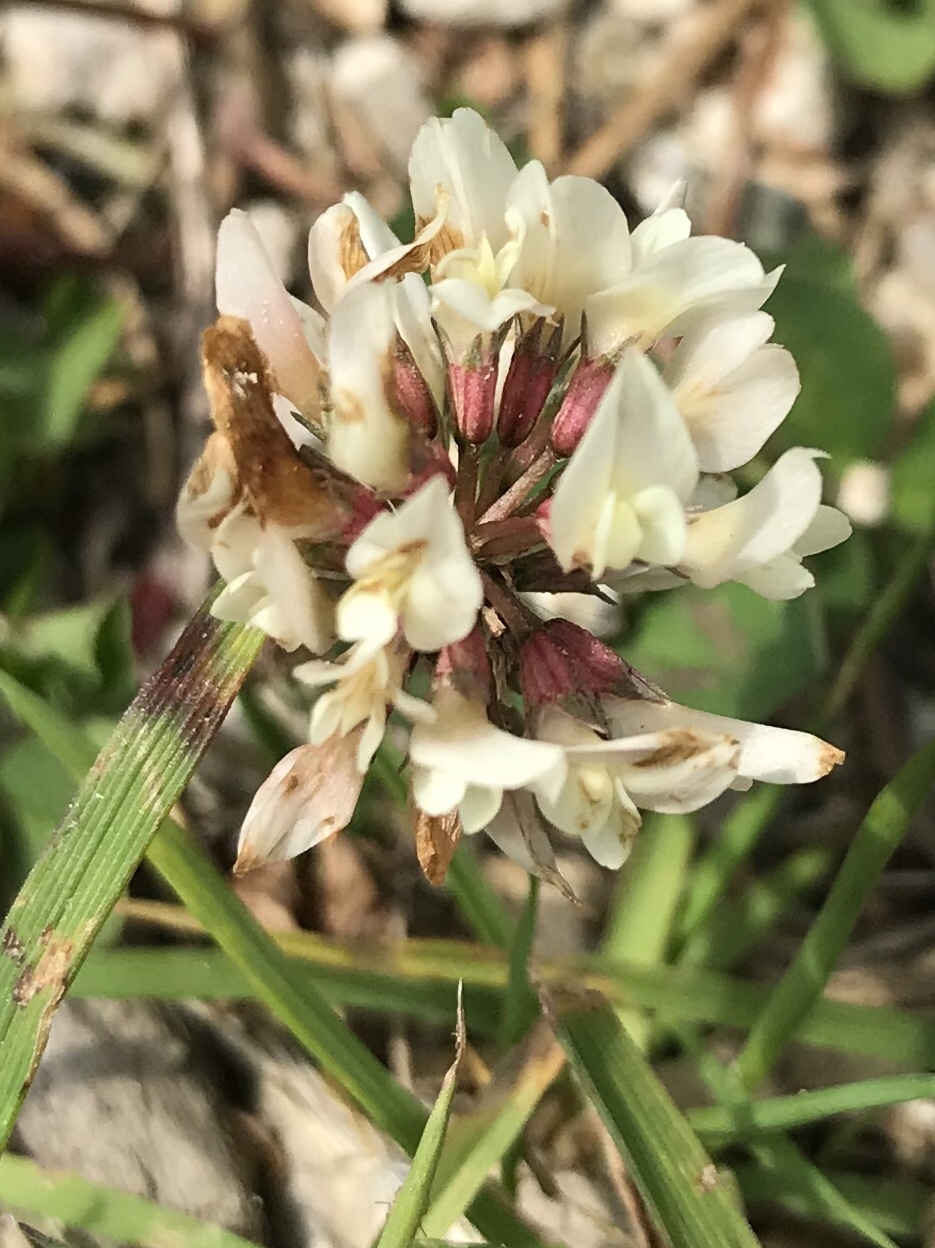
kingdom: Plantae
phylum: Tracheophyta
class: Magnoliopsida
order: Fabales
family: Fabaceae
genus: Trifolium
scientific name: Trifolium repens
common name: White clover
